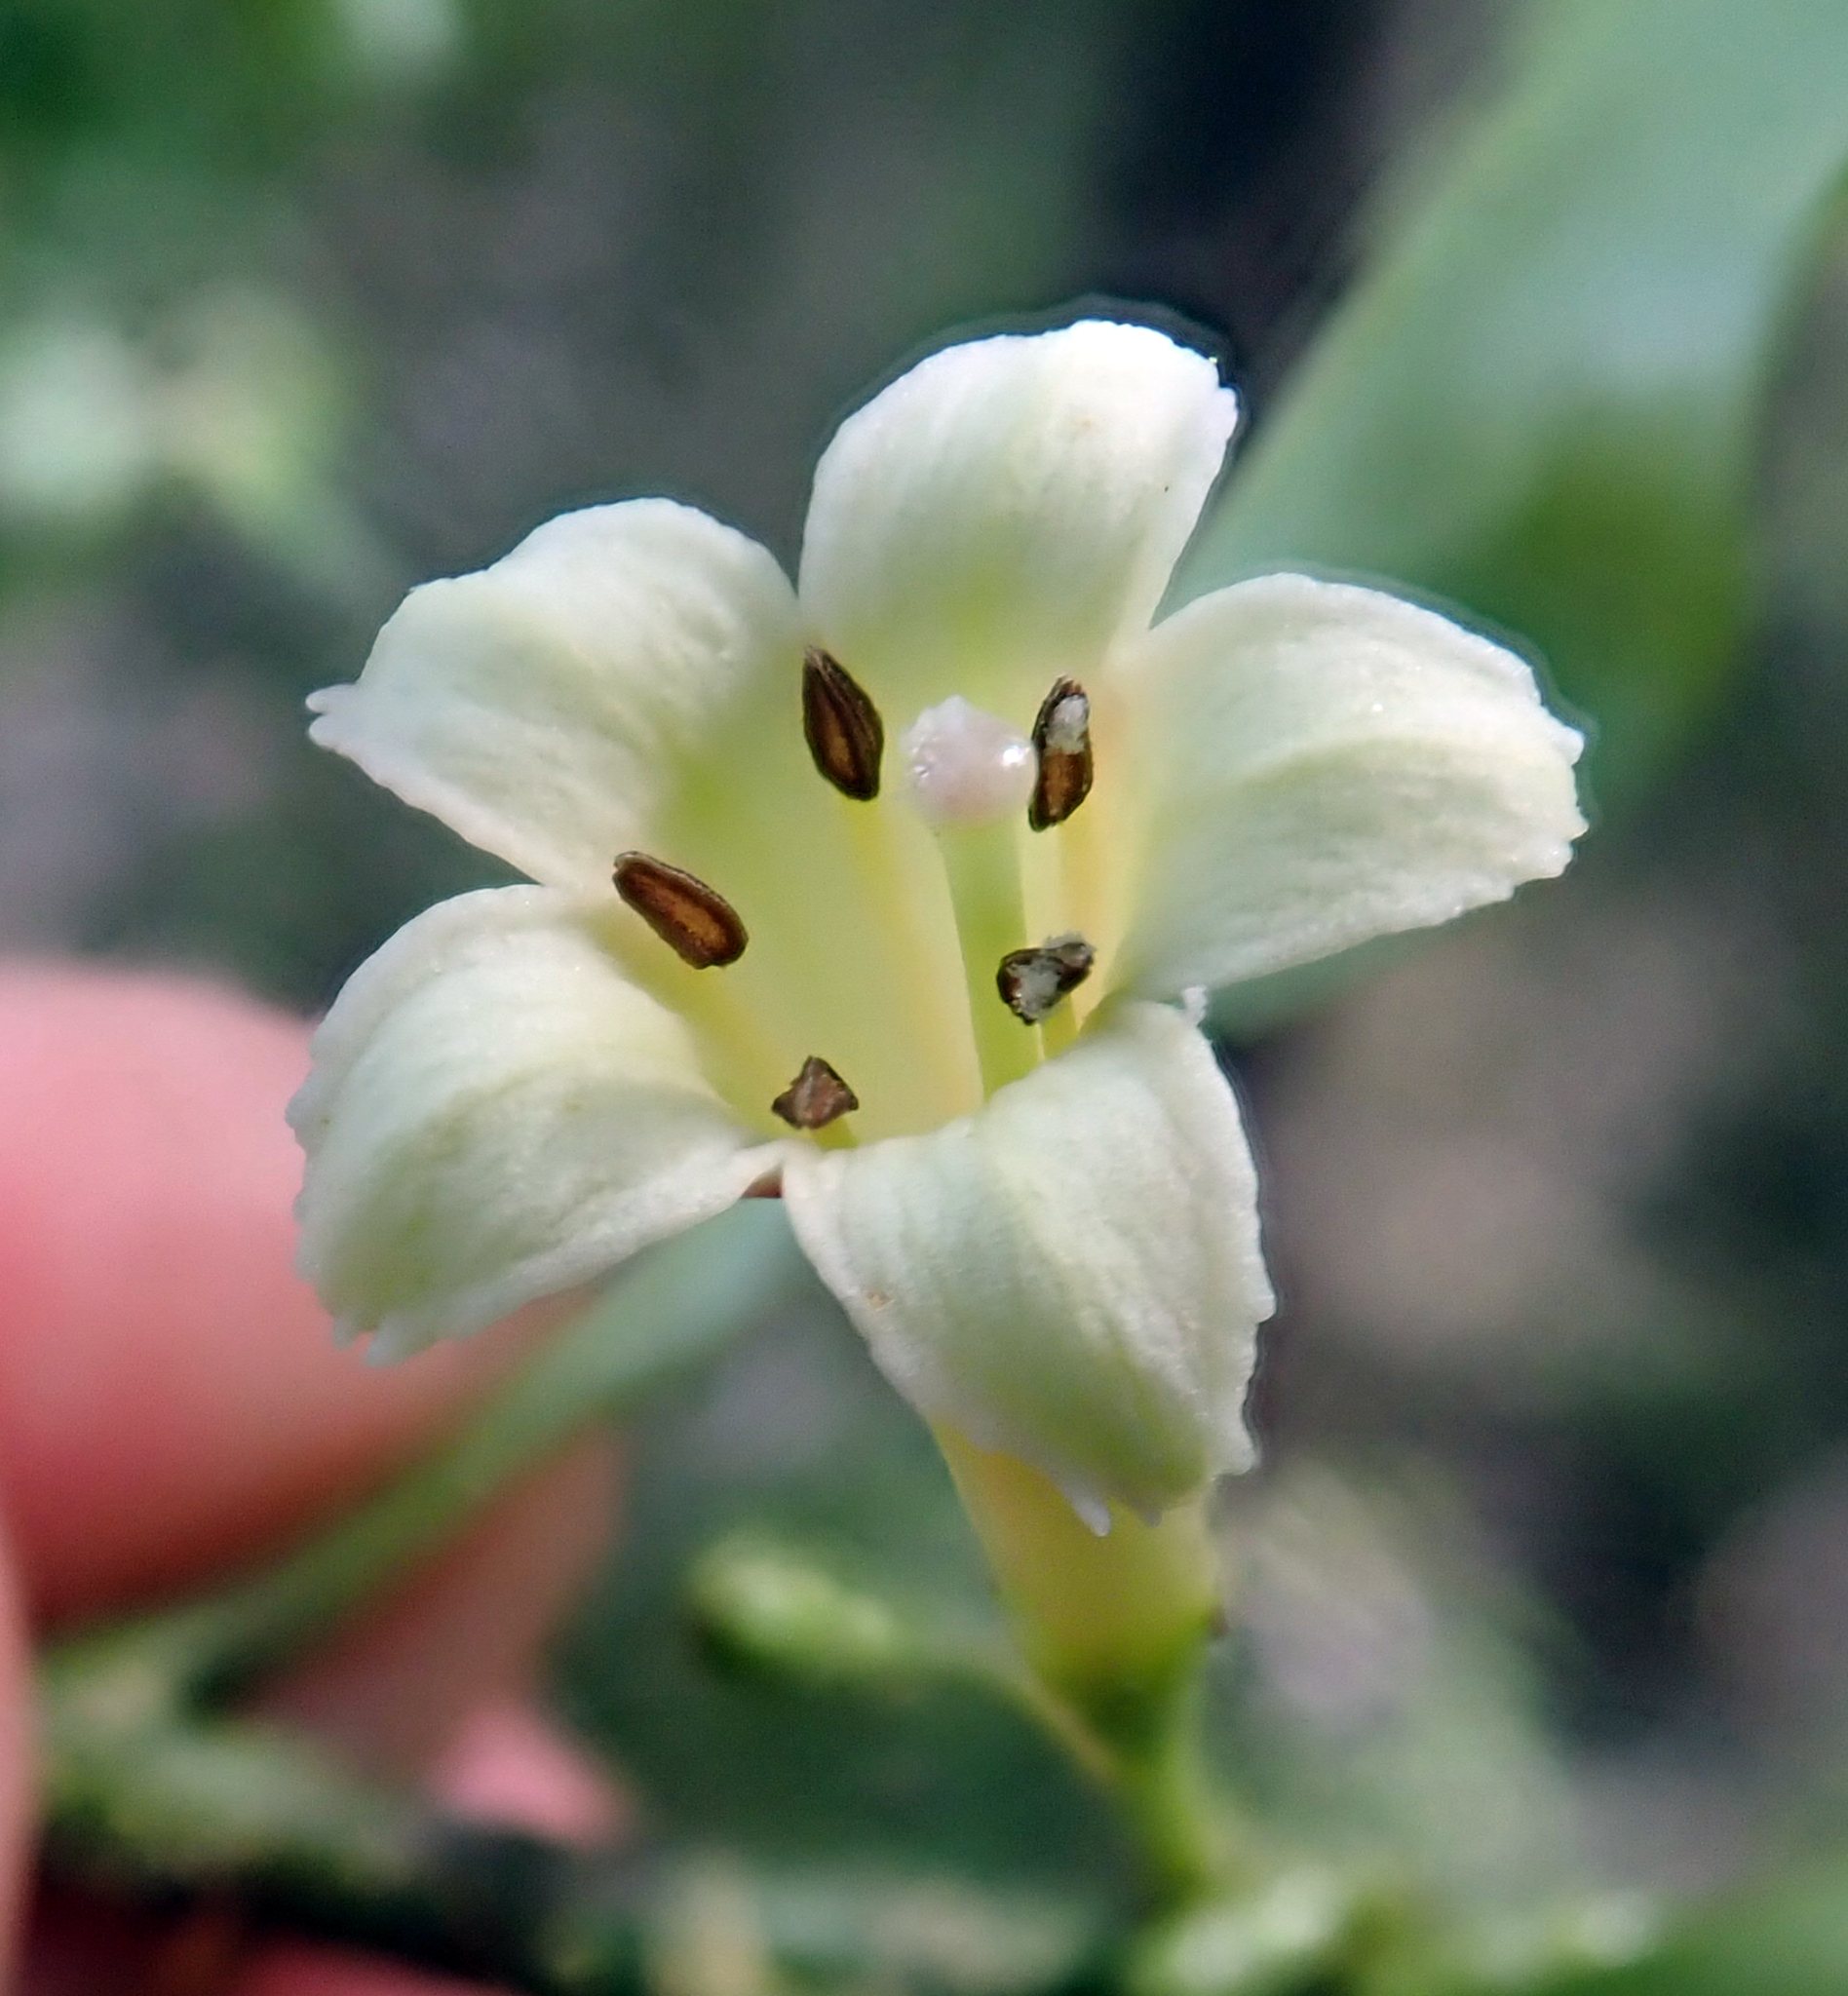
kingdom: Plantae
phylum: Tracheophyta
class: Magnoliopsida
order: Asterales
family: Alseuosmiaceae
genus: Alseuosmia
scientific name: Alseuosmia macrophylla
